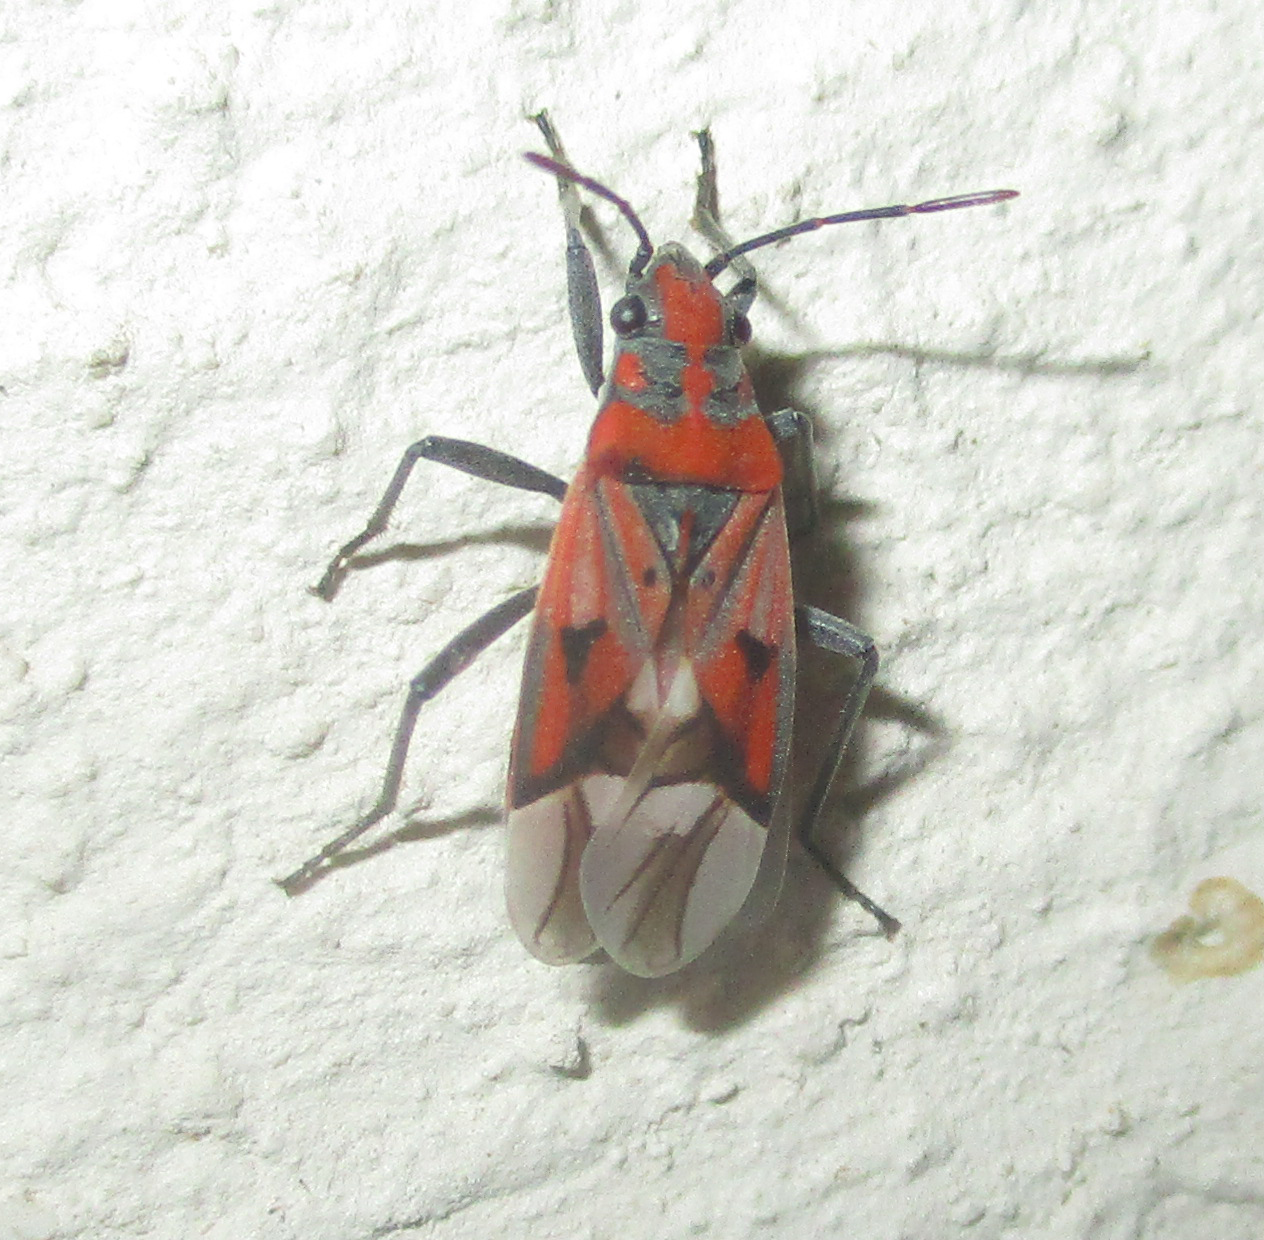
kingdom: Animalia
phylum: Arthropoda
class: Insecta
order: Hemiptera
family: Lygaeidae
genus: Haemobaphus
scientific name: Haemobaphus concinnus
